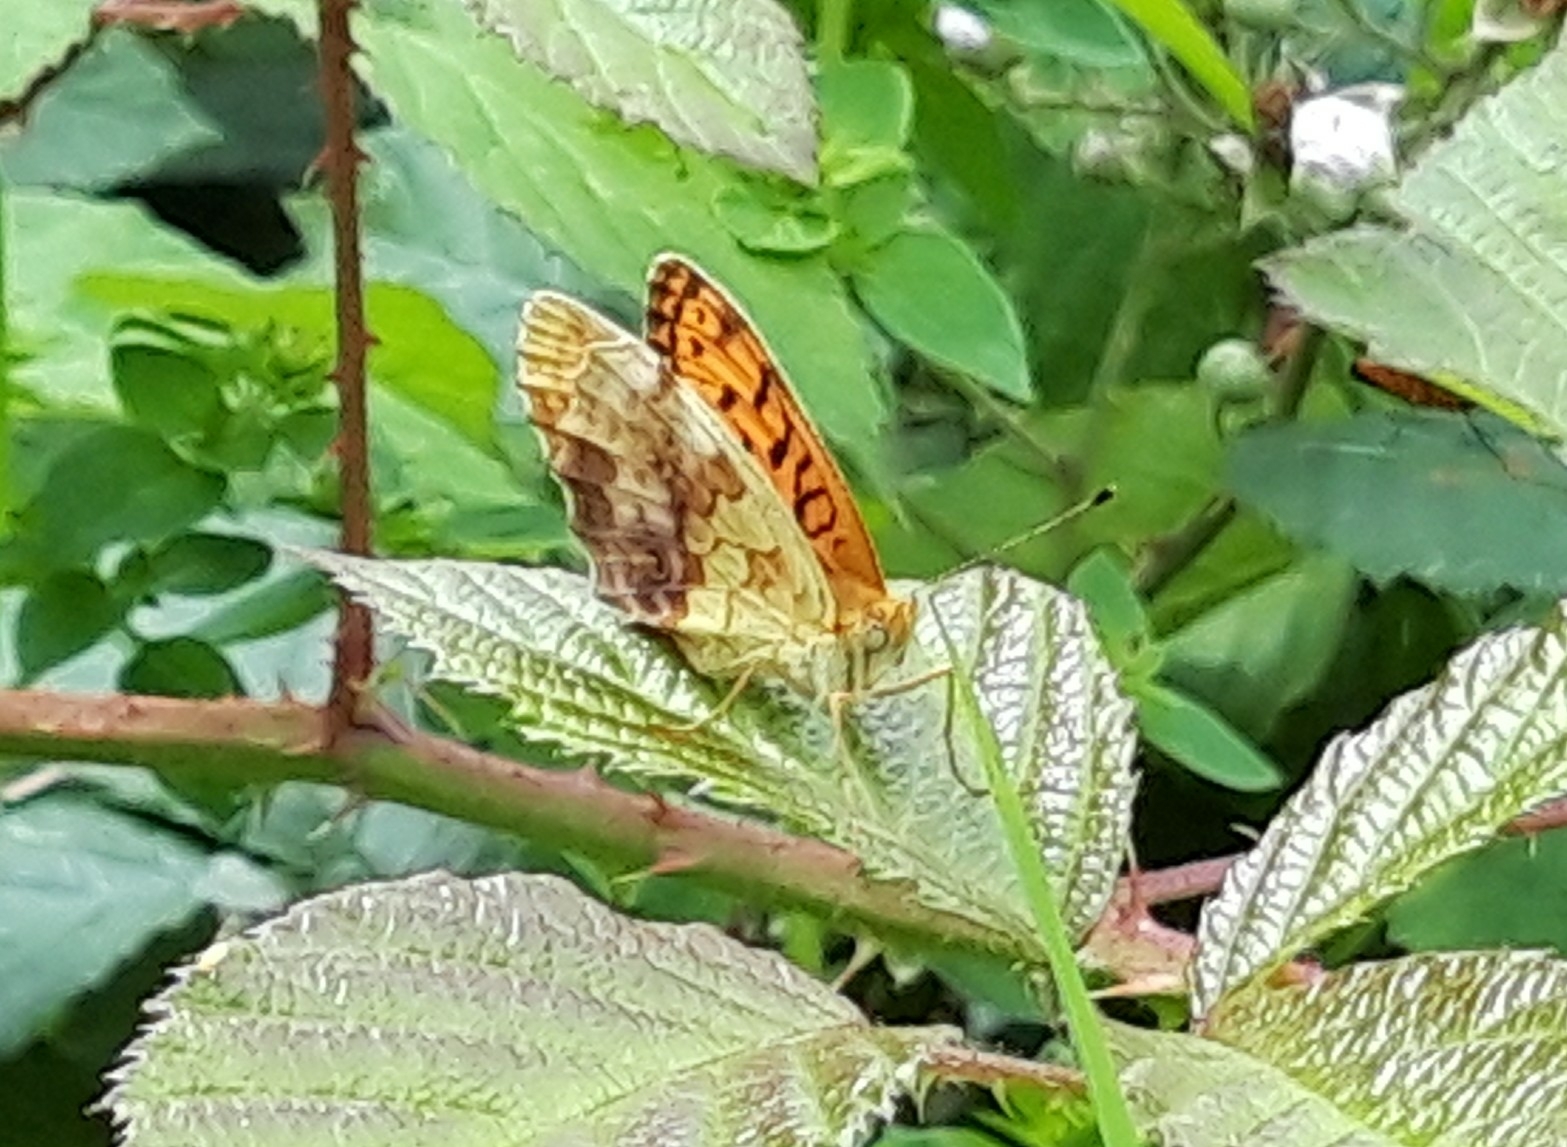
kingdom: Animalia
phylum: Arthropoda
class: Insecta
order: Lepidoptera
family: Nymphalidae
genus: Brenthis
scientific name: Brenthis daphne
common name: Marbled fritillary
